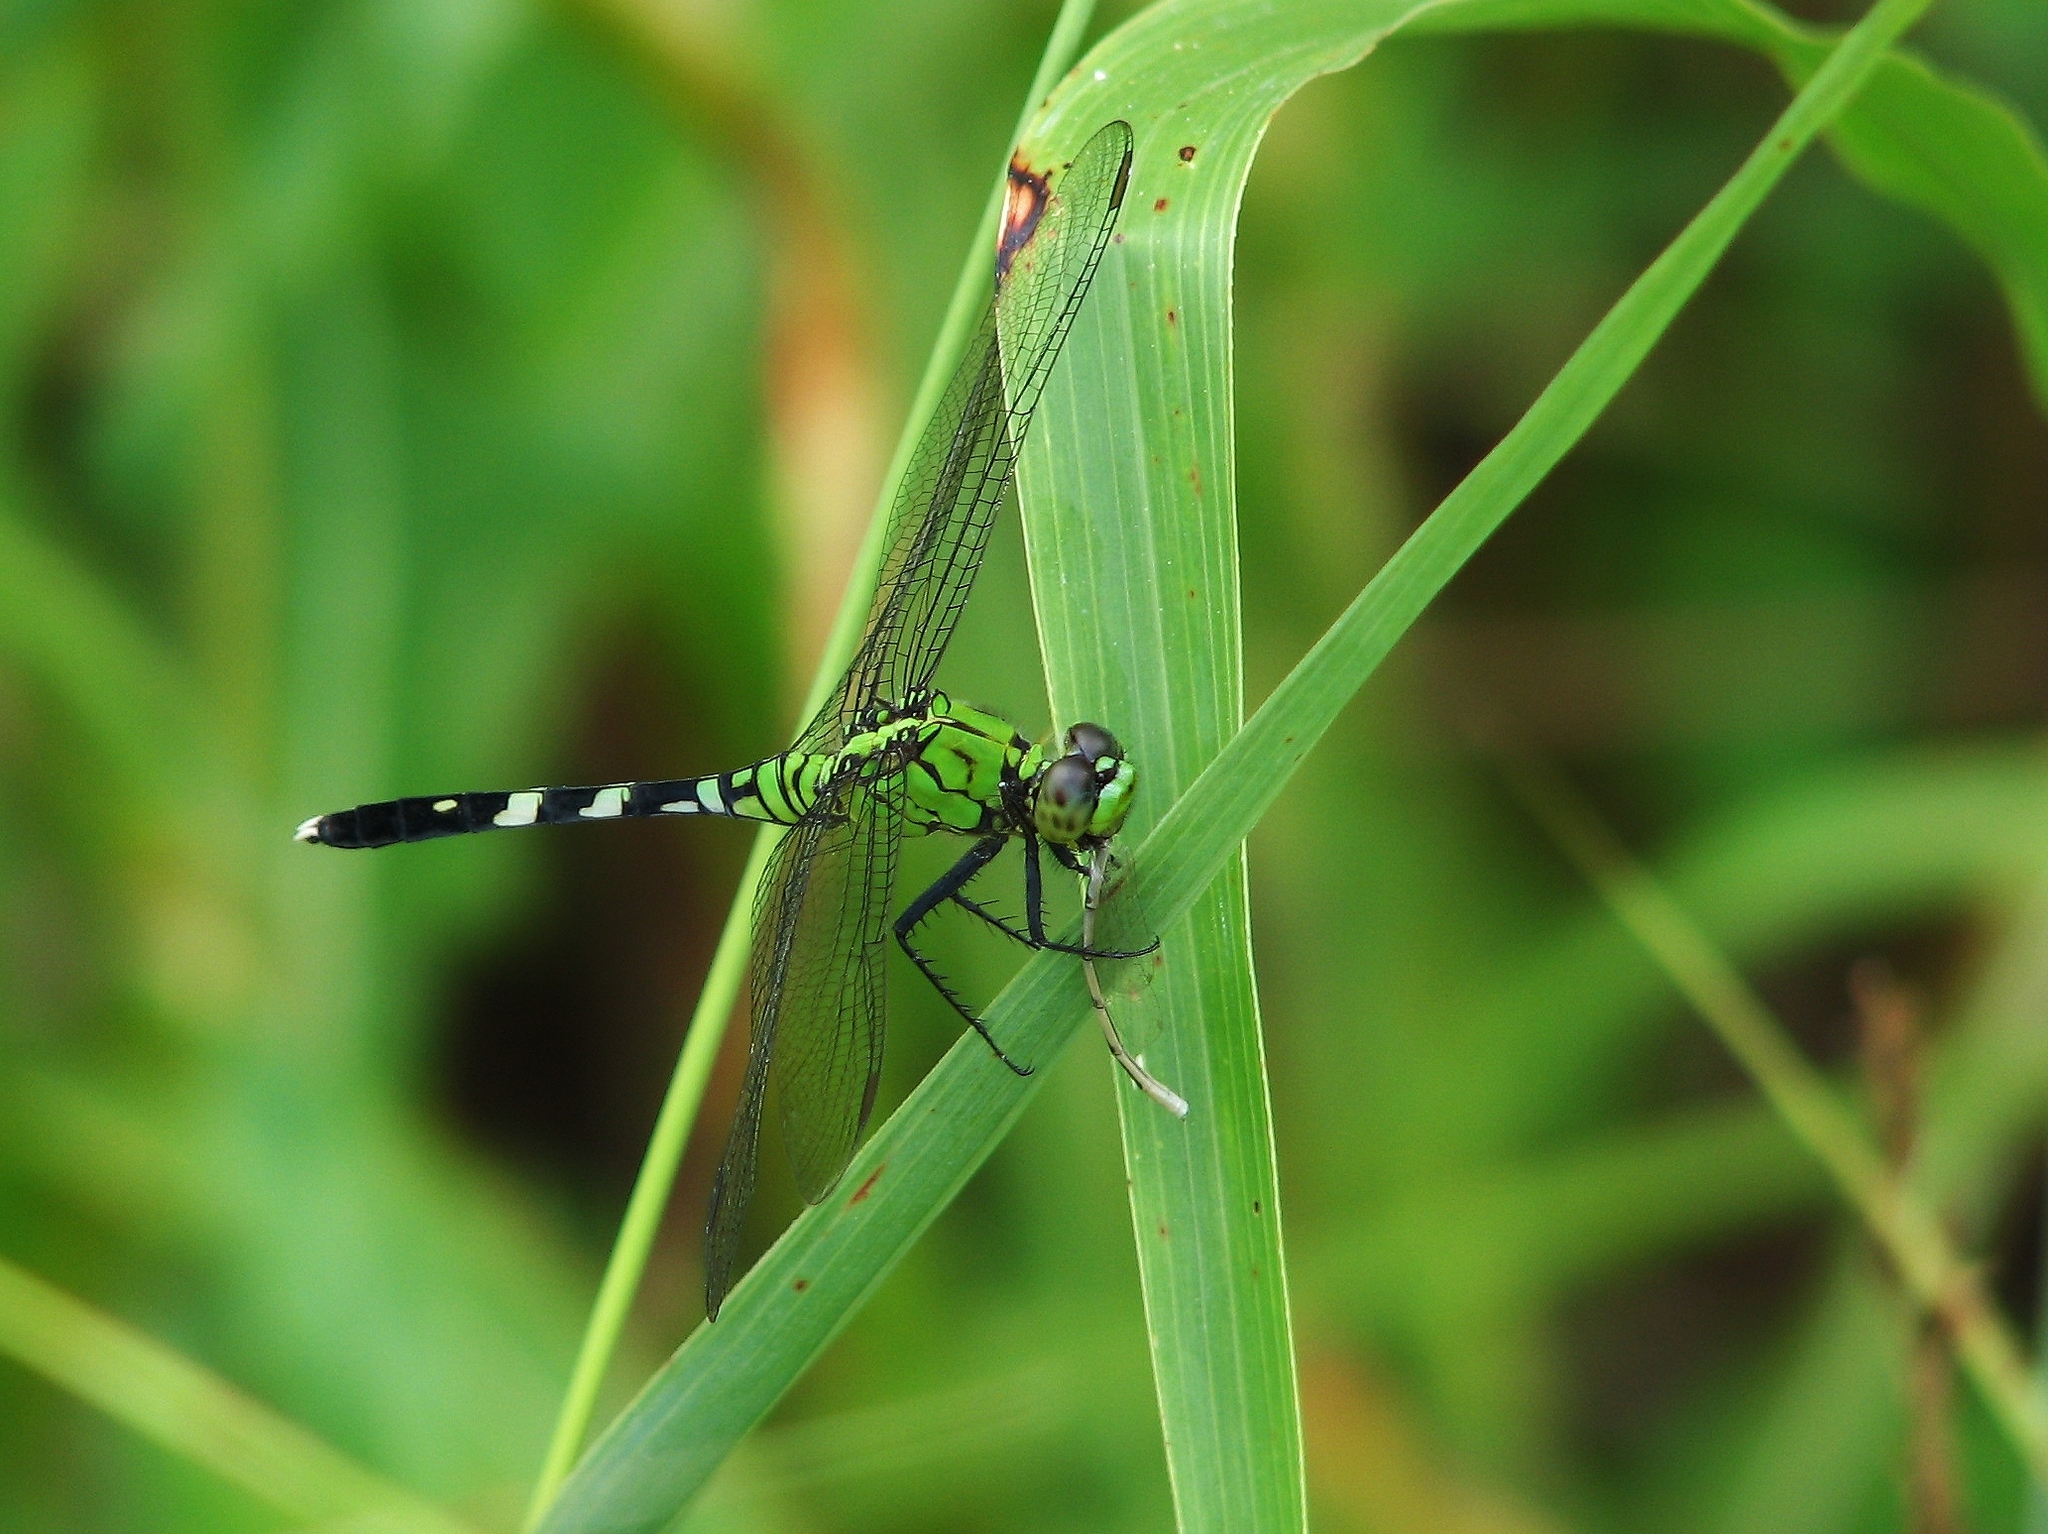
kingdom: Animalia
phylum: Arthropoda
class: Insecta
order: Odonata
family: Libellulidae
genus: Erythemis
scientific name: Erythemis simplicicollis
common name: Eastern pondhawk
